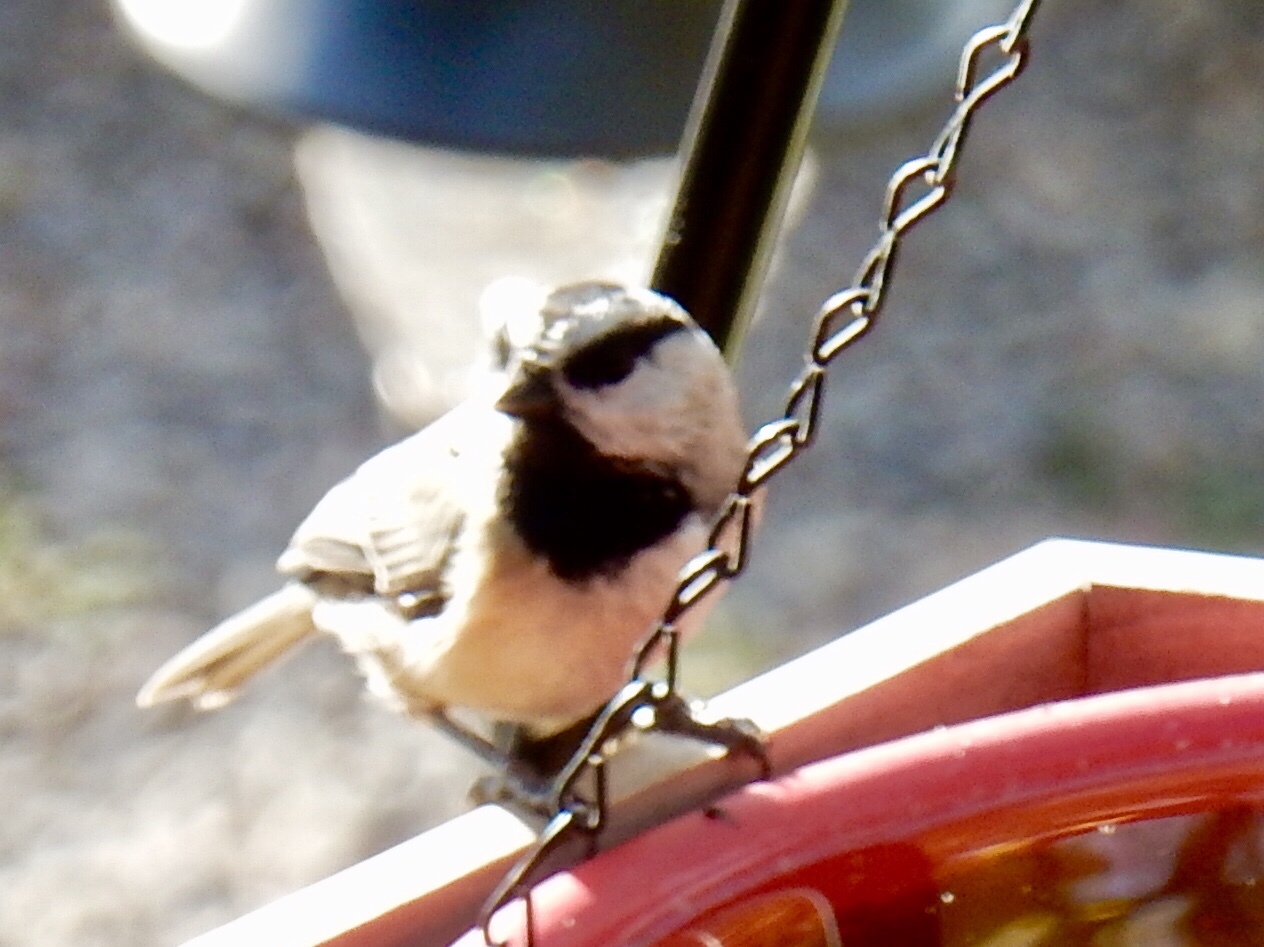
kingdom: Animalia
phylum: Chordata
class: Aves
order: Passeriformes
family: Paridae
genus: Poecile
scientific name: Poecile gambeli
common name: Mountain chickadee
